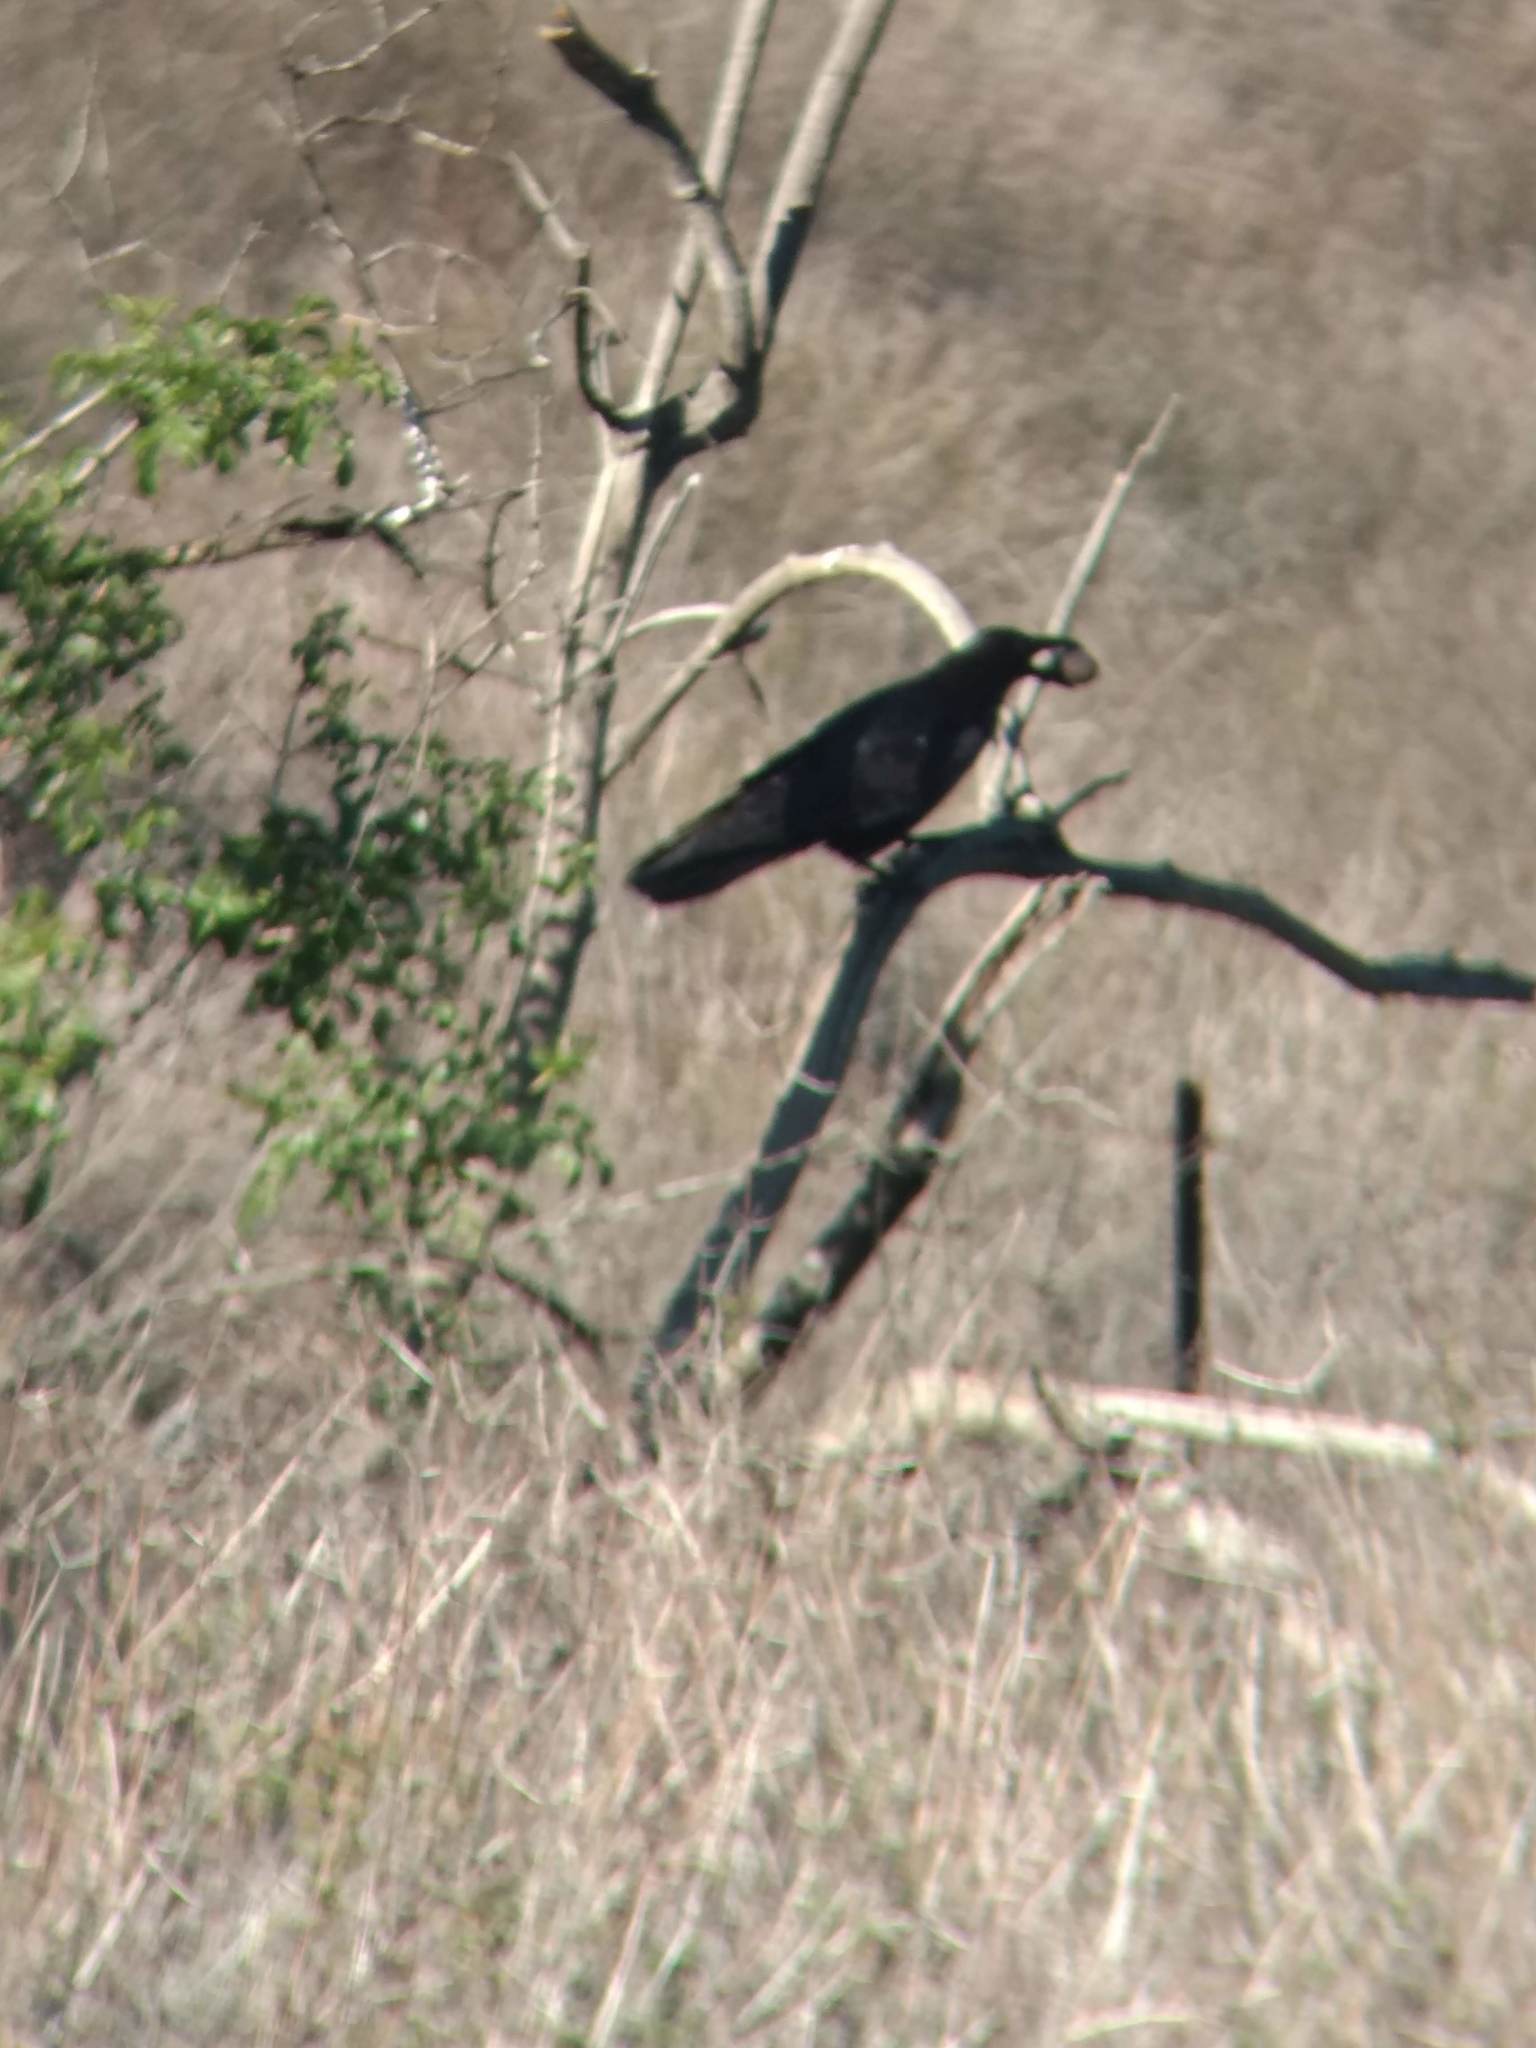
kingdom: Animalia
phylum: Chordata
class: Aves
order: Passeriformes
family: Corvidae
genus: Corvus
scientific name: Corvus corax
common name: Common raven
